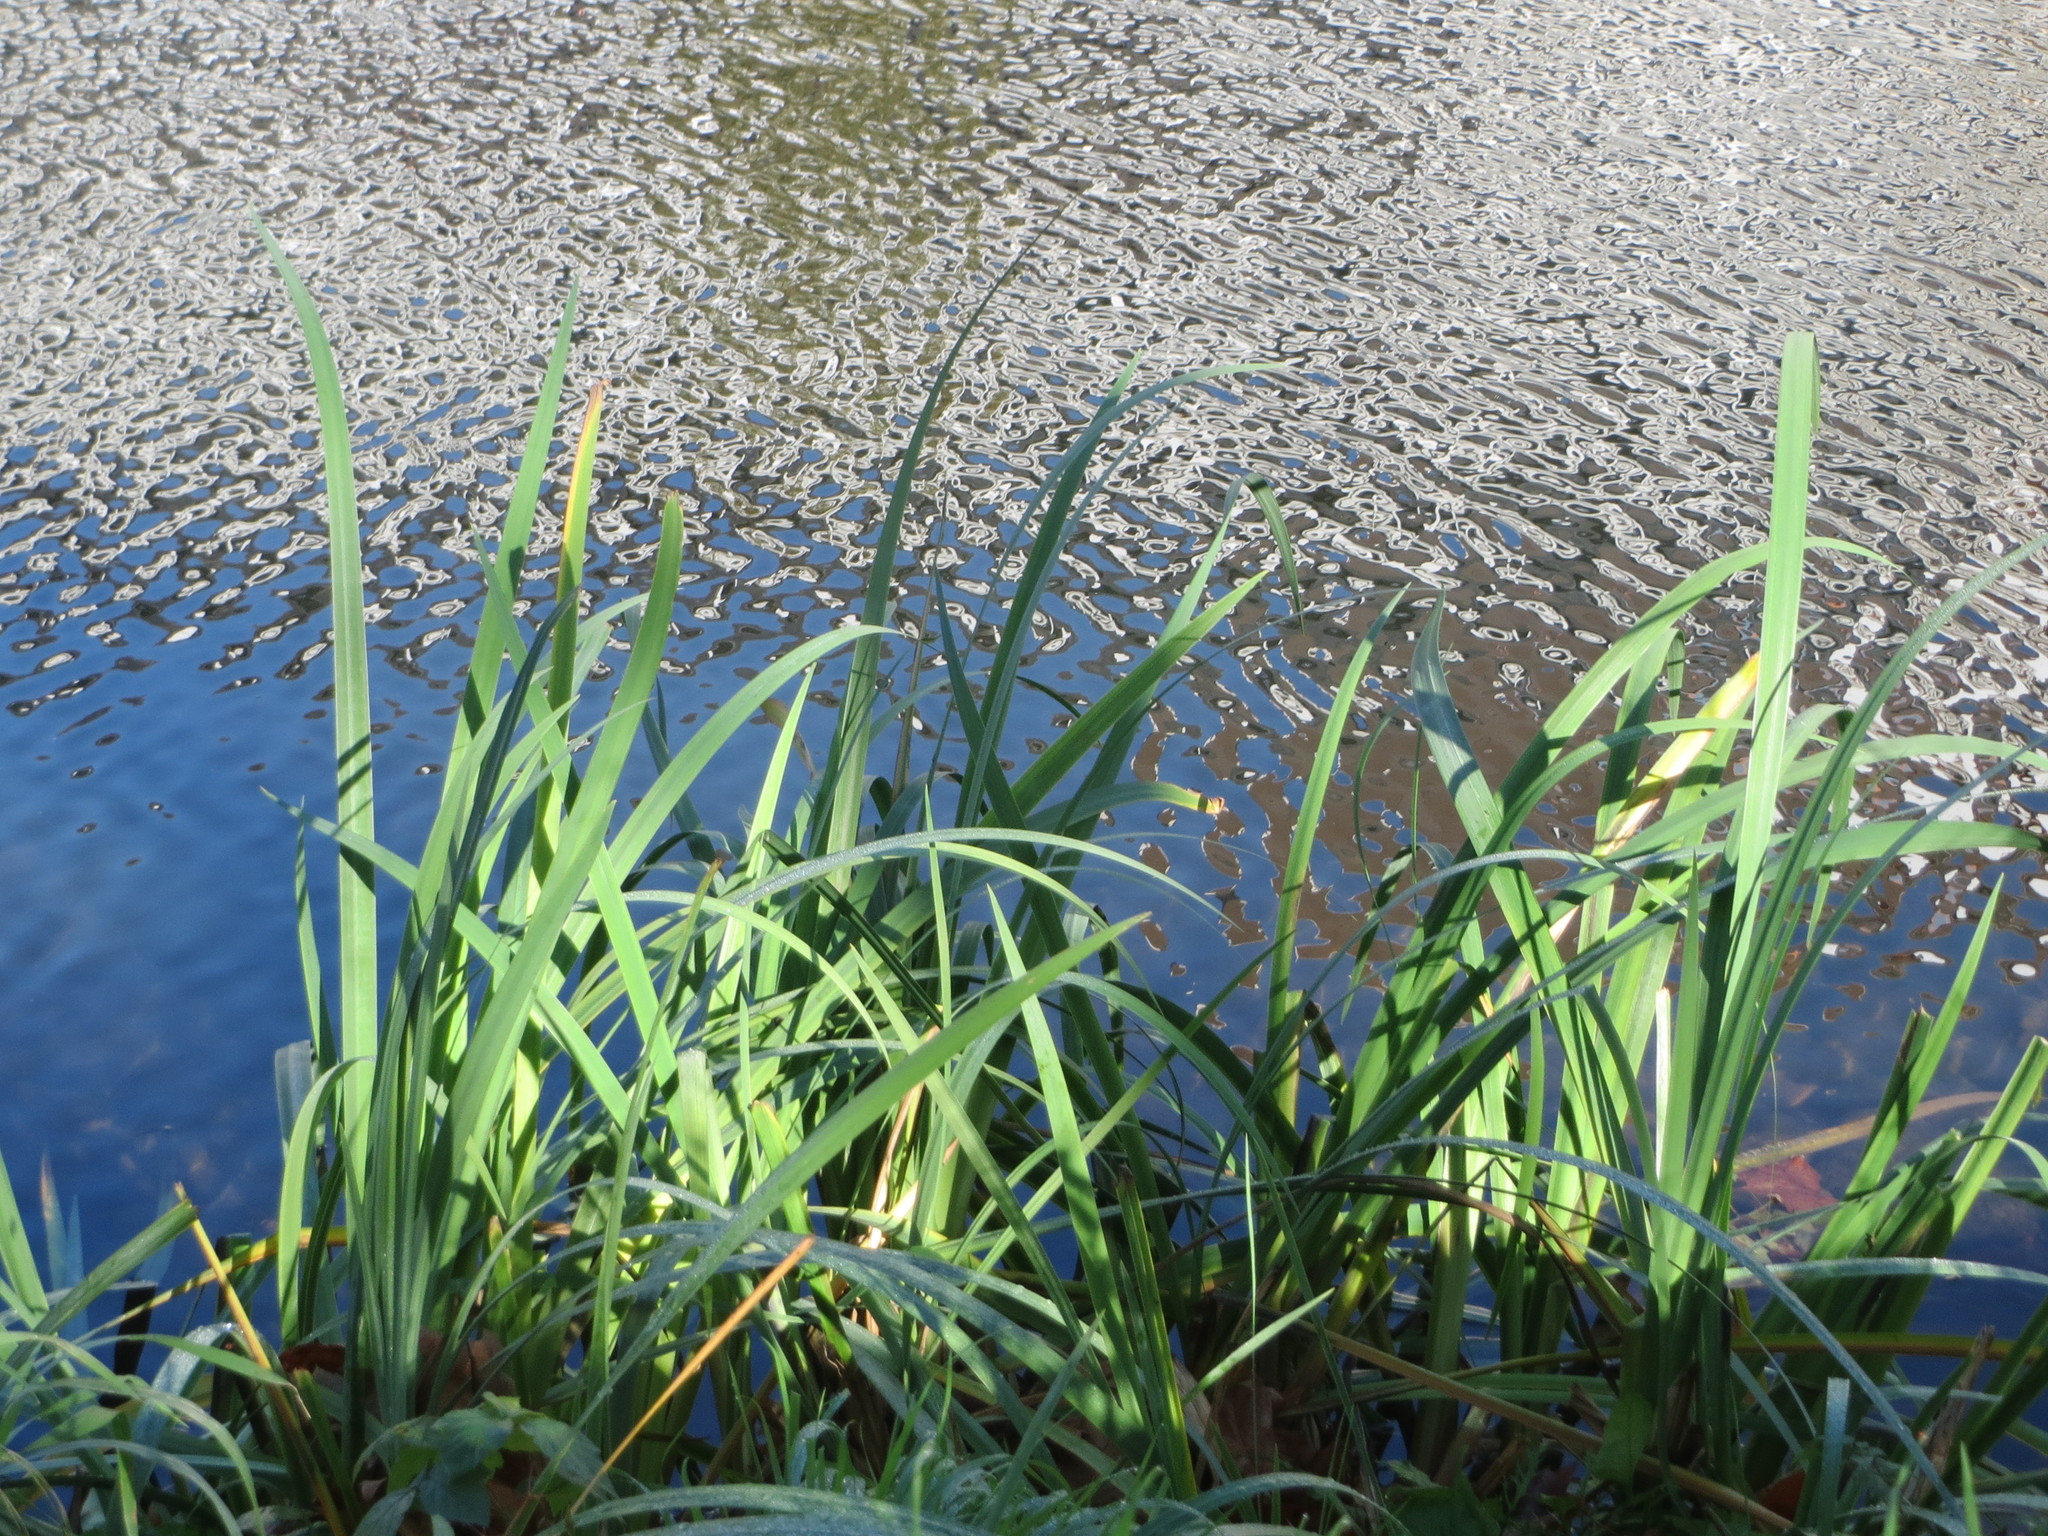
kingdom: Plantae
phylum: Tracheophyta
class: Liliopsida
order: Asparagales
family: Iridaceae
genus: Iris
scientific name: Iris pseudacorus
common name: Yellow flag
